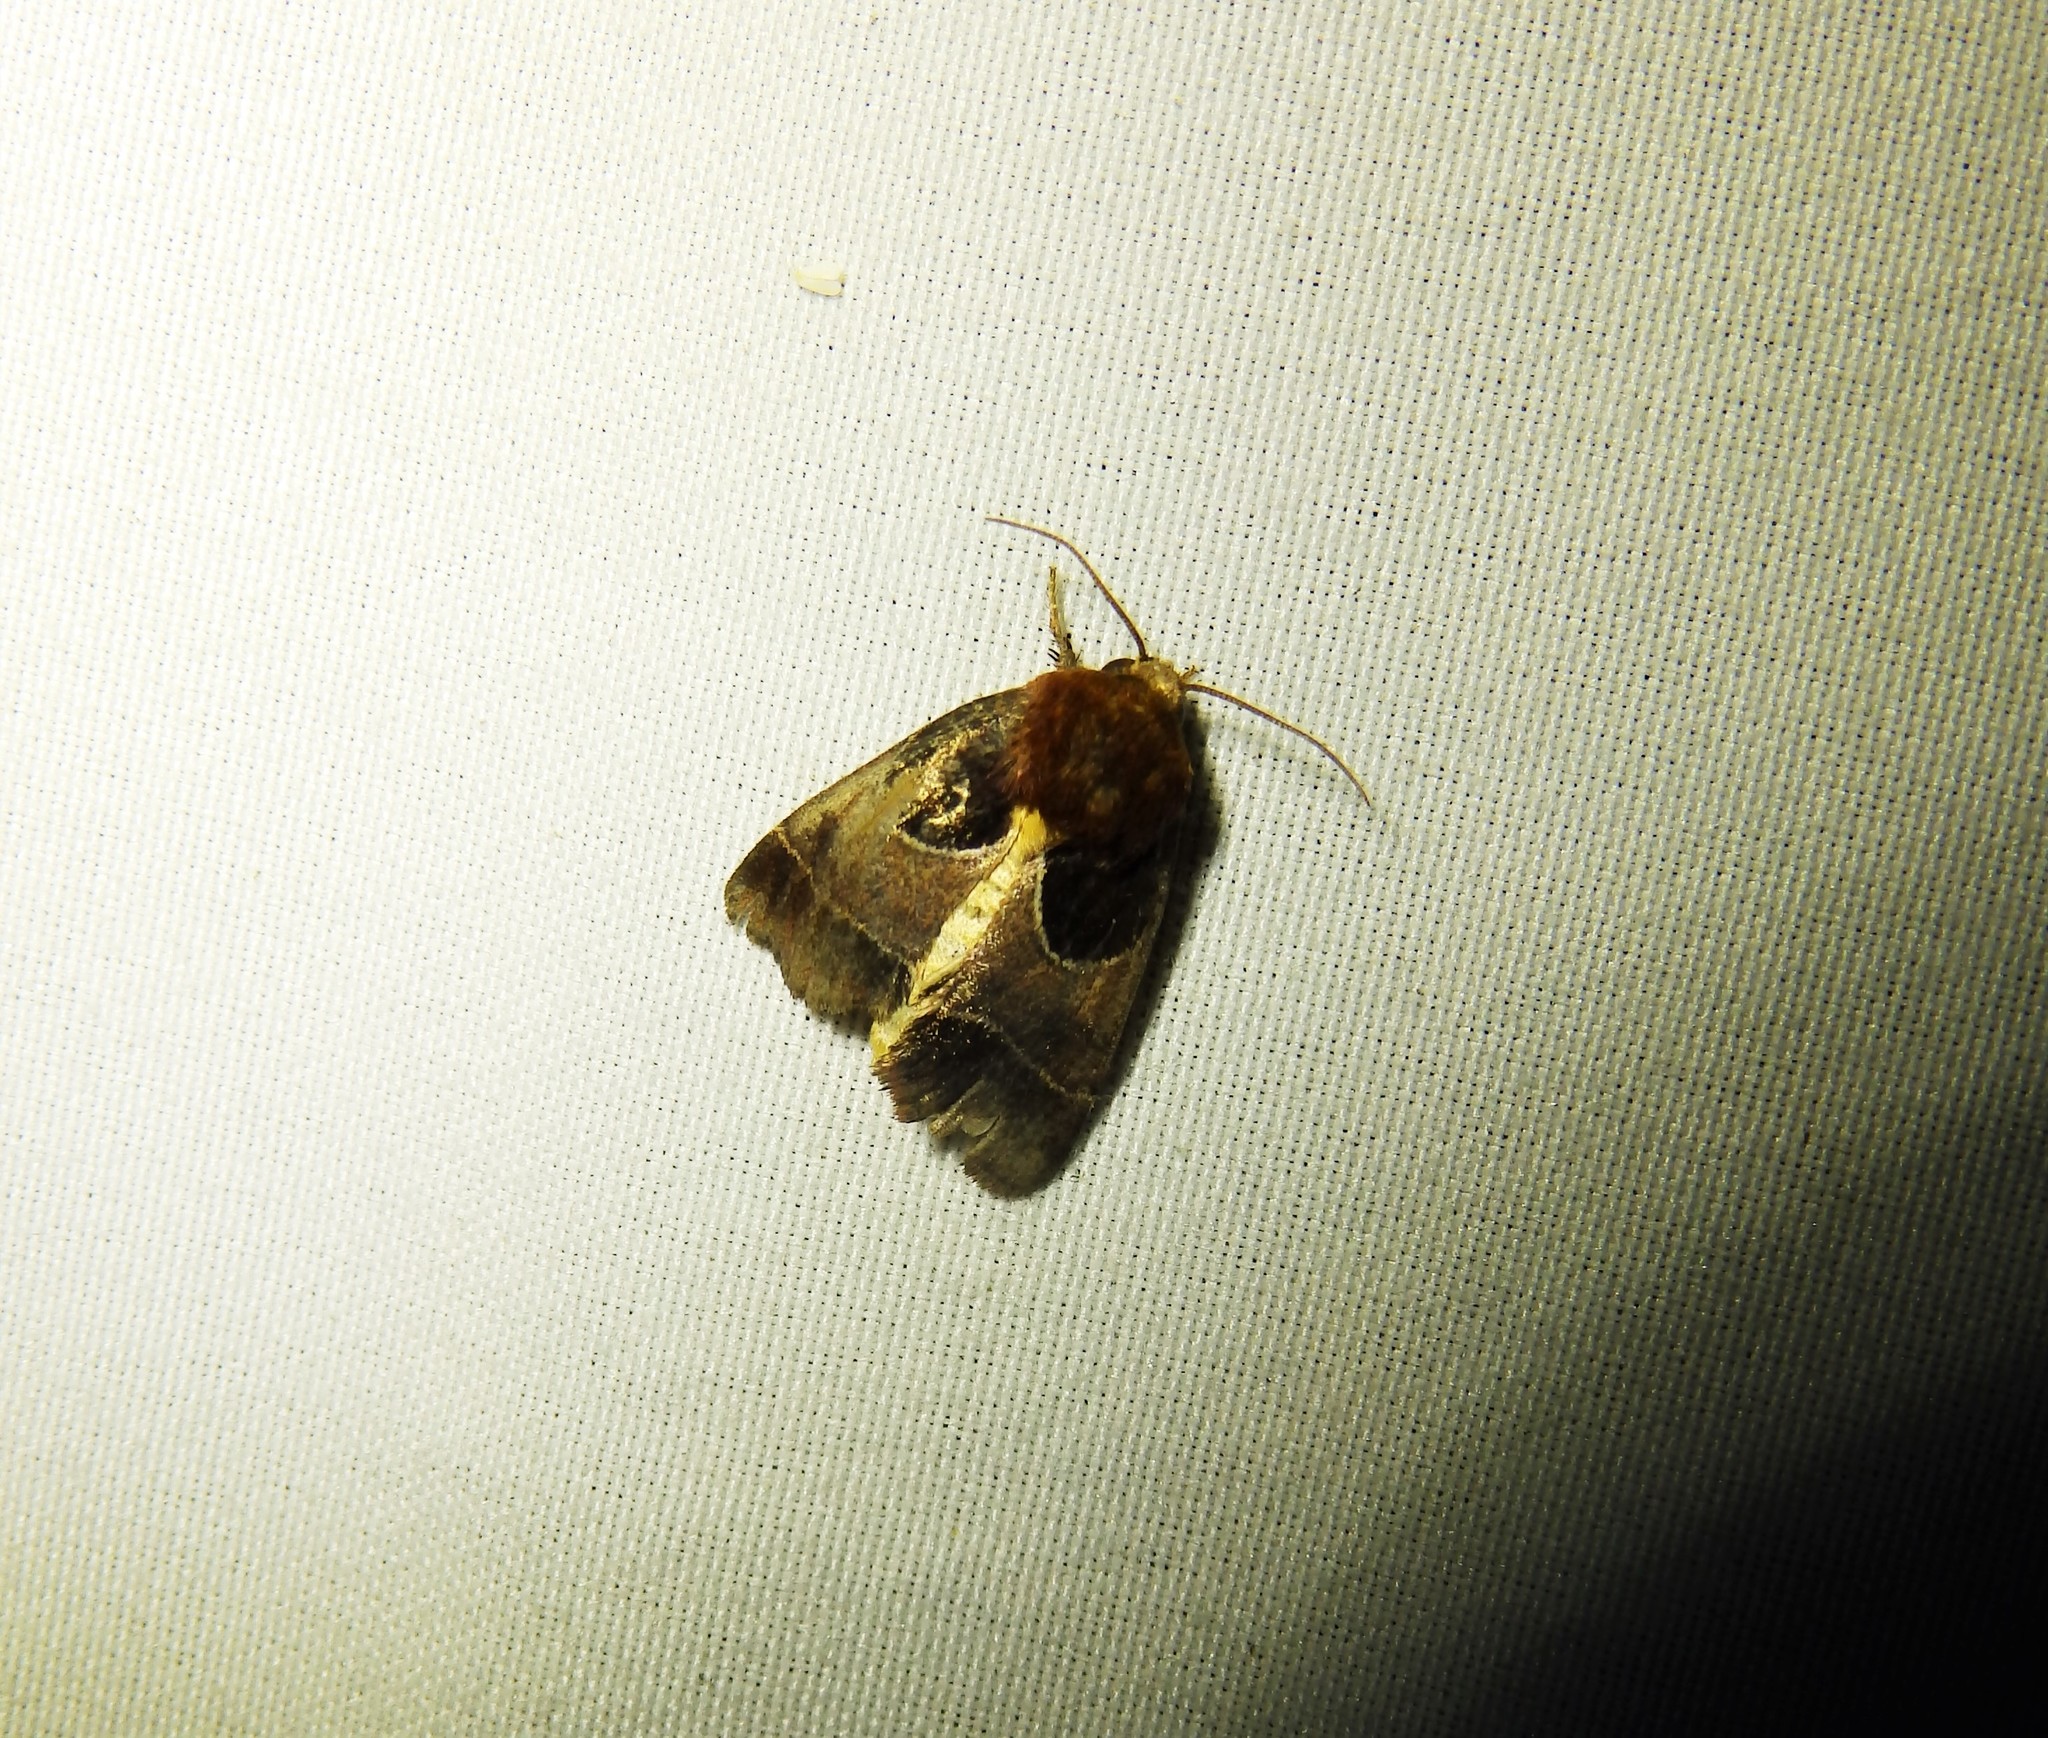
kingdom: Animalia
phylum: Arthropoda
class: Insecta
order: Lepidoptera
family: Noctuidae
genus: Schinia
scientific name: Schinia arcigera
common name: Arcigera flower moth
